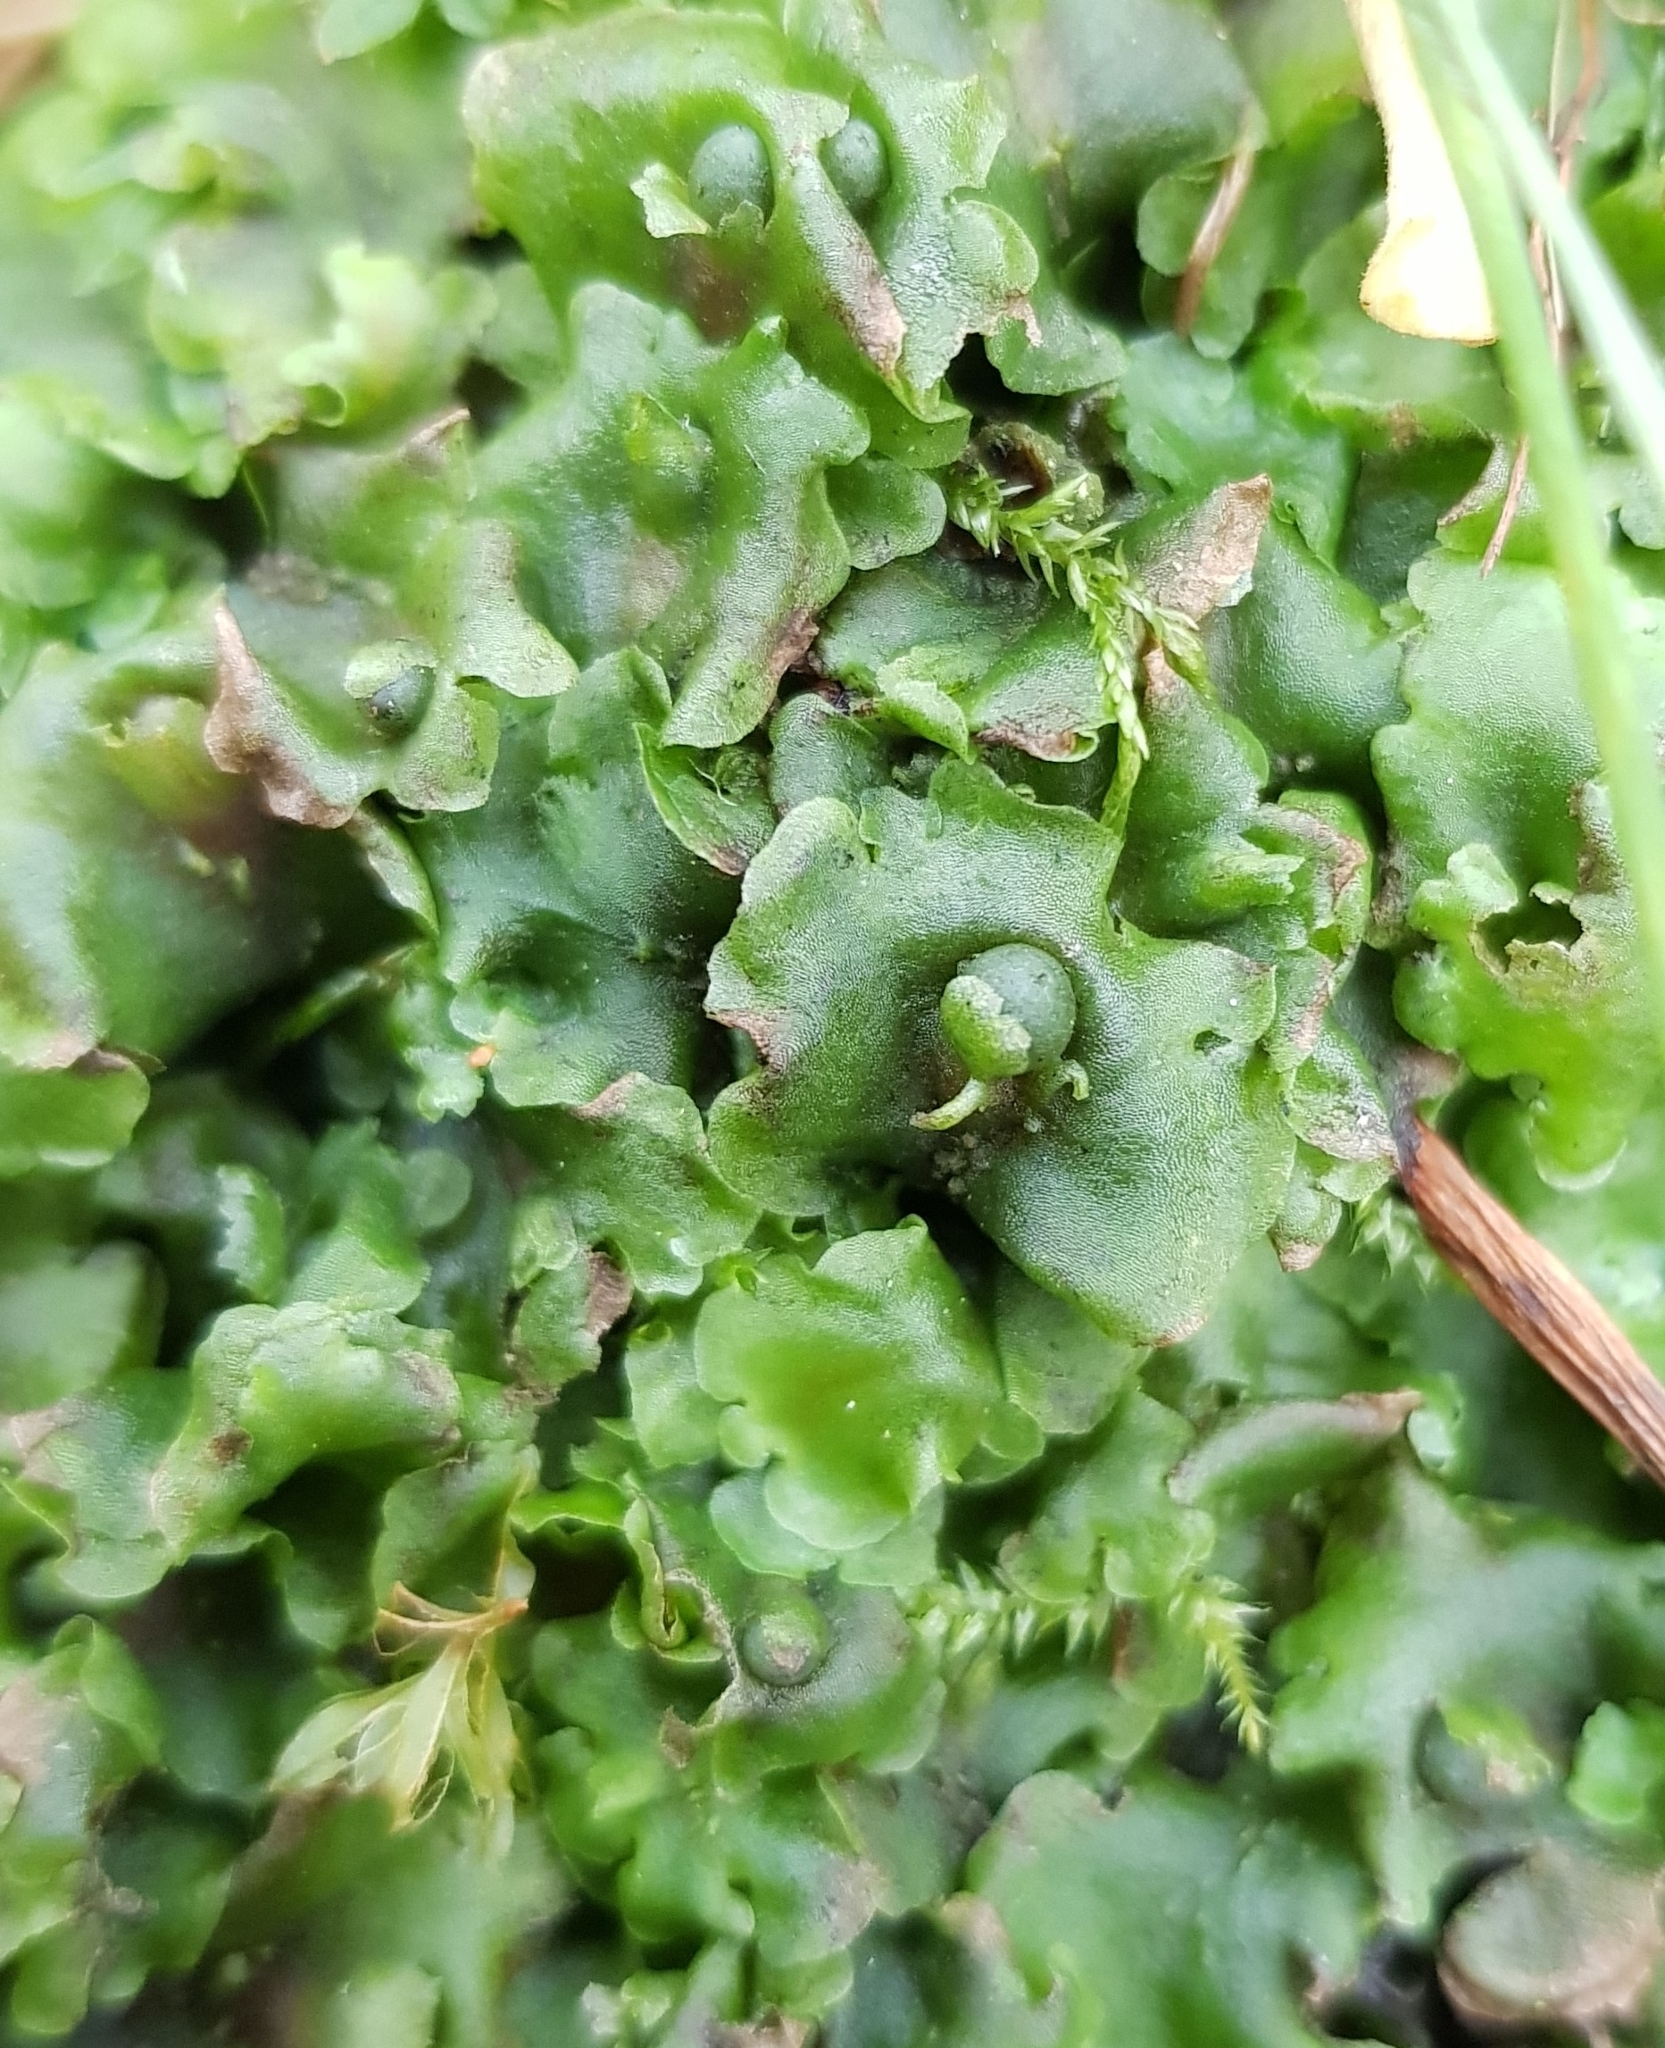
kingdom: Plantae
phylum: Marchantiophyta
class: Jungermanniopsida
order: Pelliales
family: Pelliaceae
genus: Pellia
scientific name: Pellia epiphylla
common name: Common pellia
